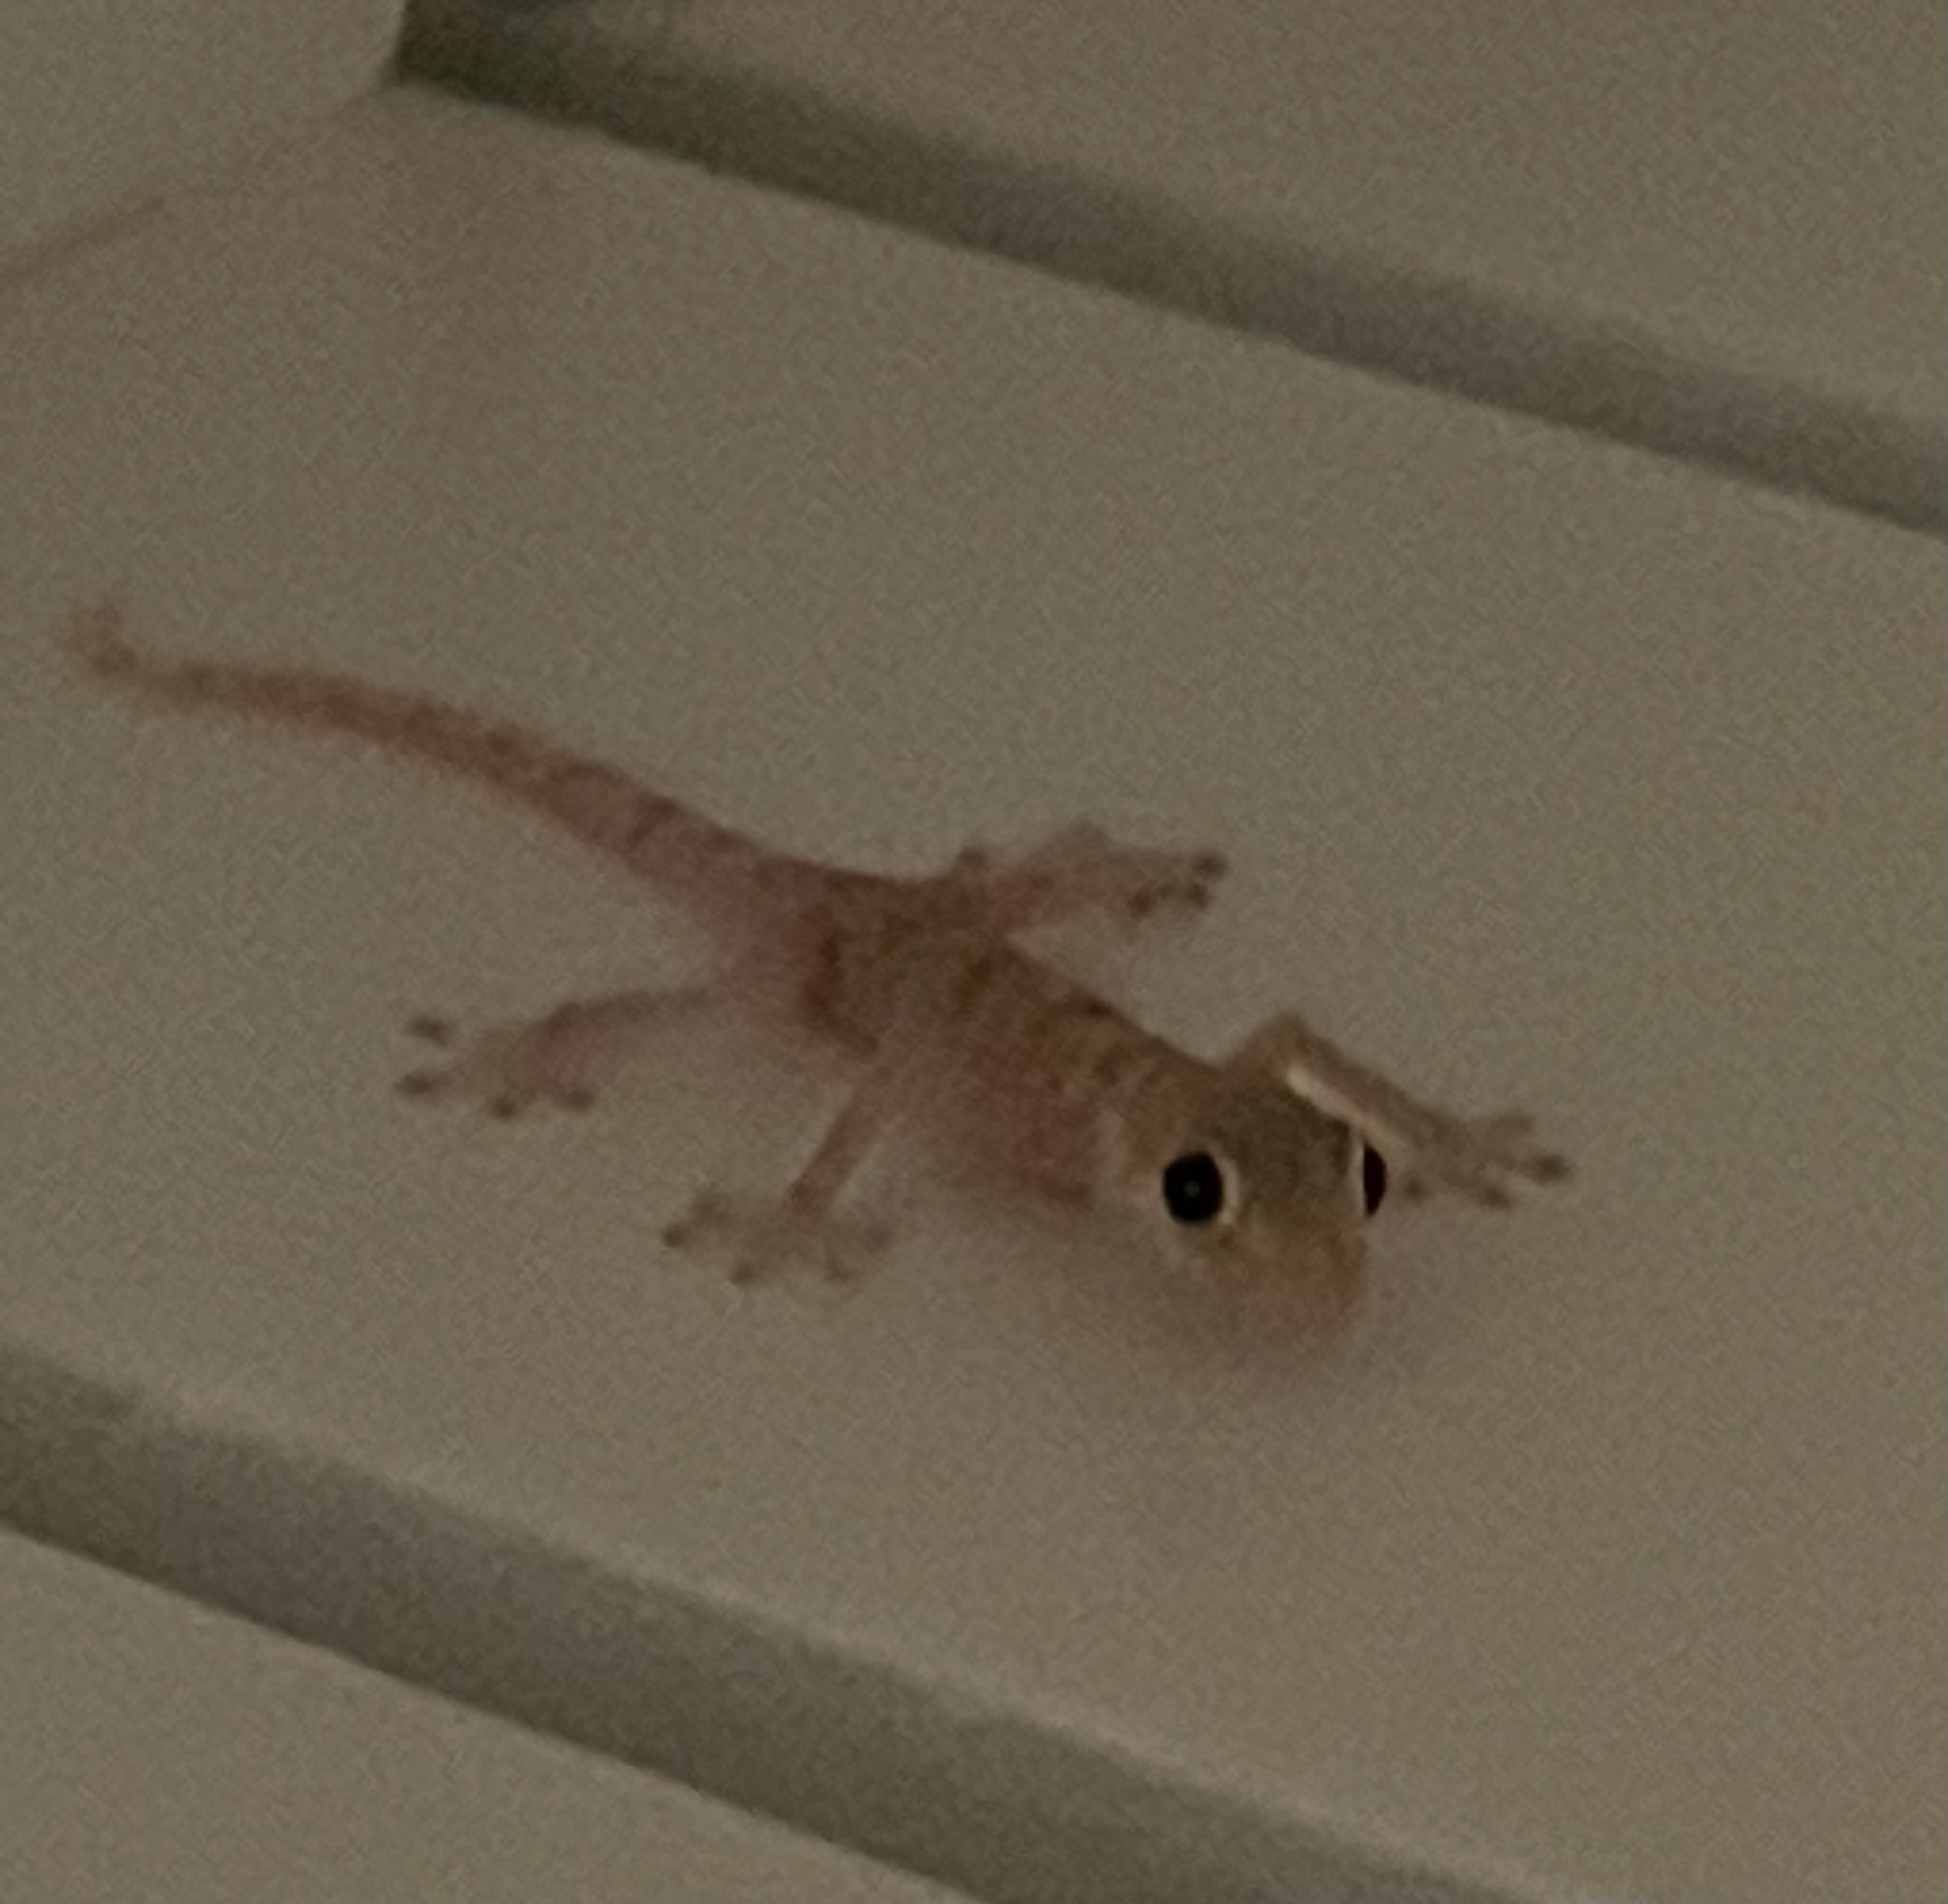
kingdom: Animalia
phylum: Chordata
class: Squamata
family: Phyllodactylidae
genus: Ptyodactylus
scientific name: Ptyodactylus hasselquistii
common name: Hasselquist’s fan-footed gecko
